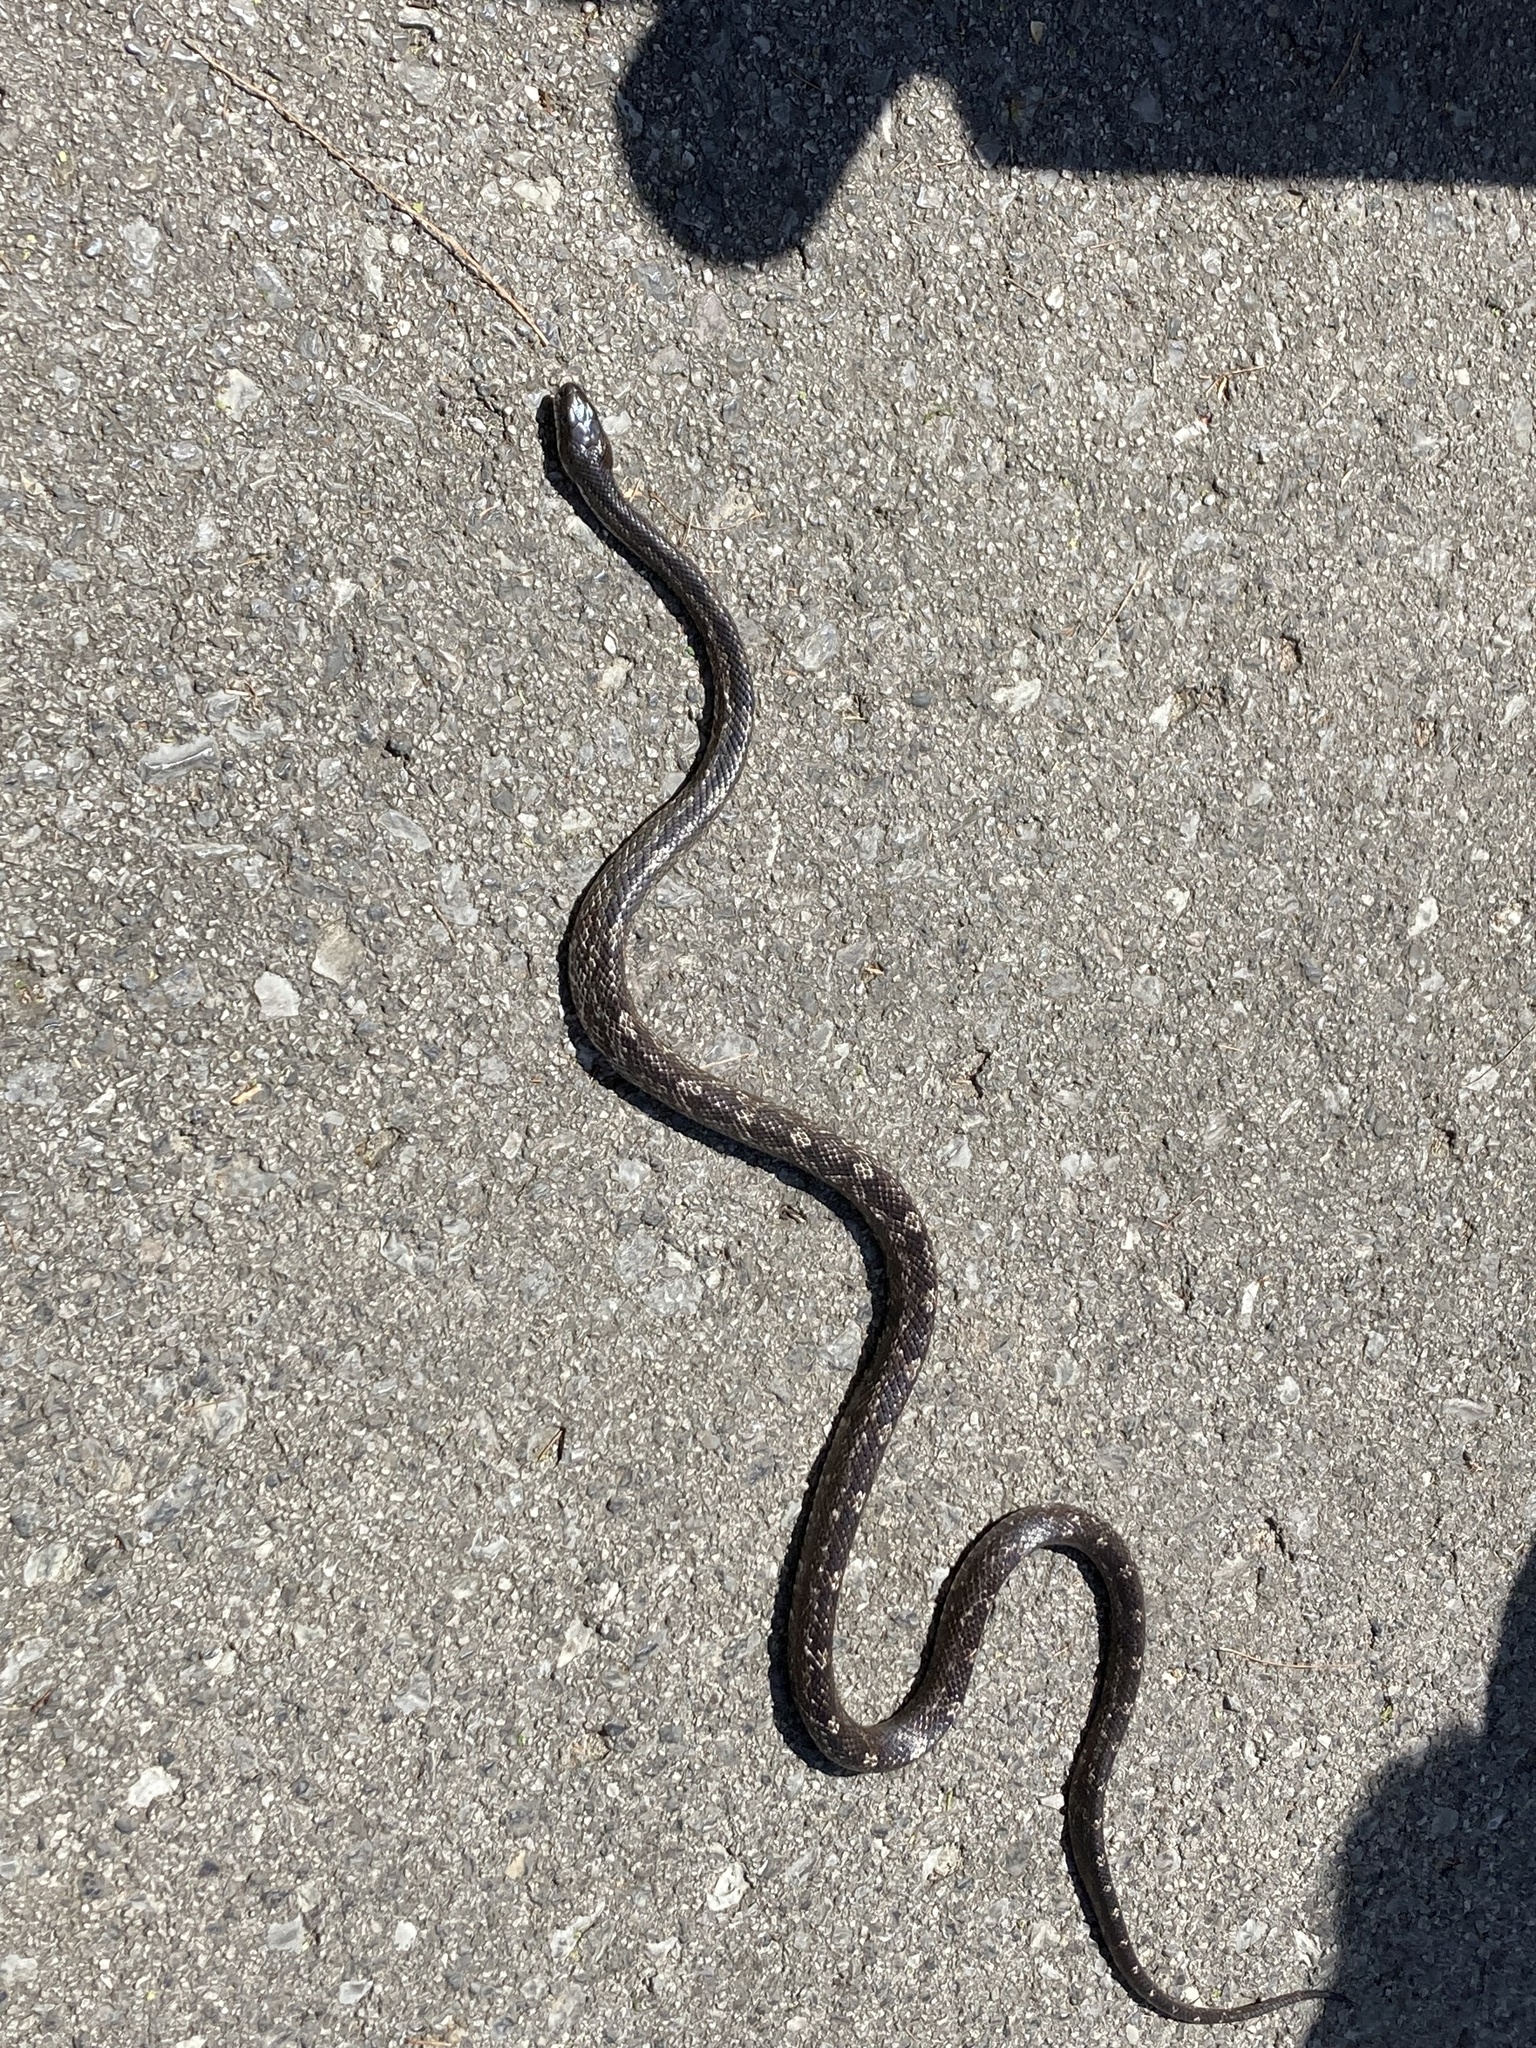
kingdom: Animalia
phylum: Chordata
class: Squamata
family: Colubridae
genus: Pantherophis
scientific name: Pantherophis spiloides
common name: Gray rat snake
